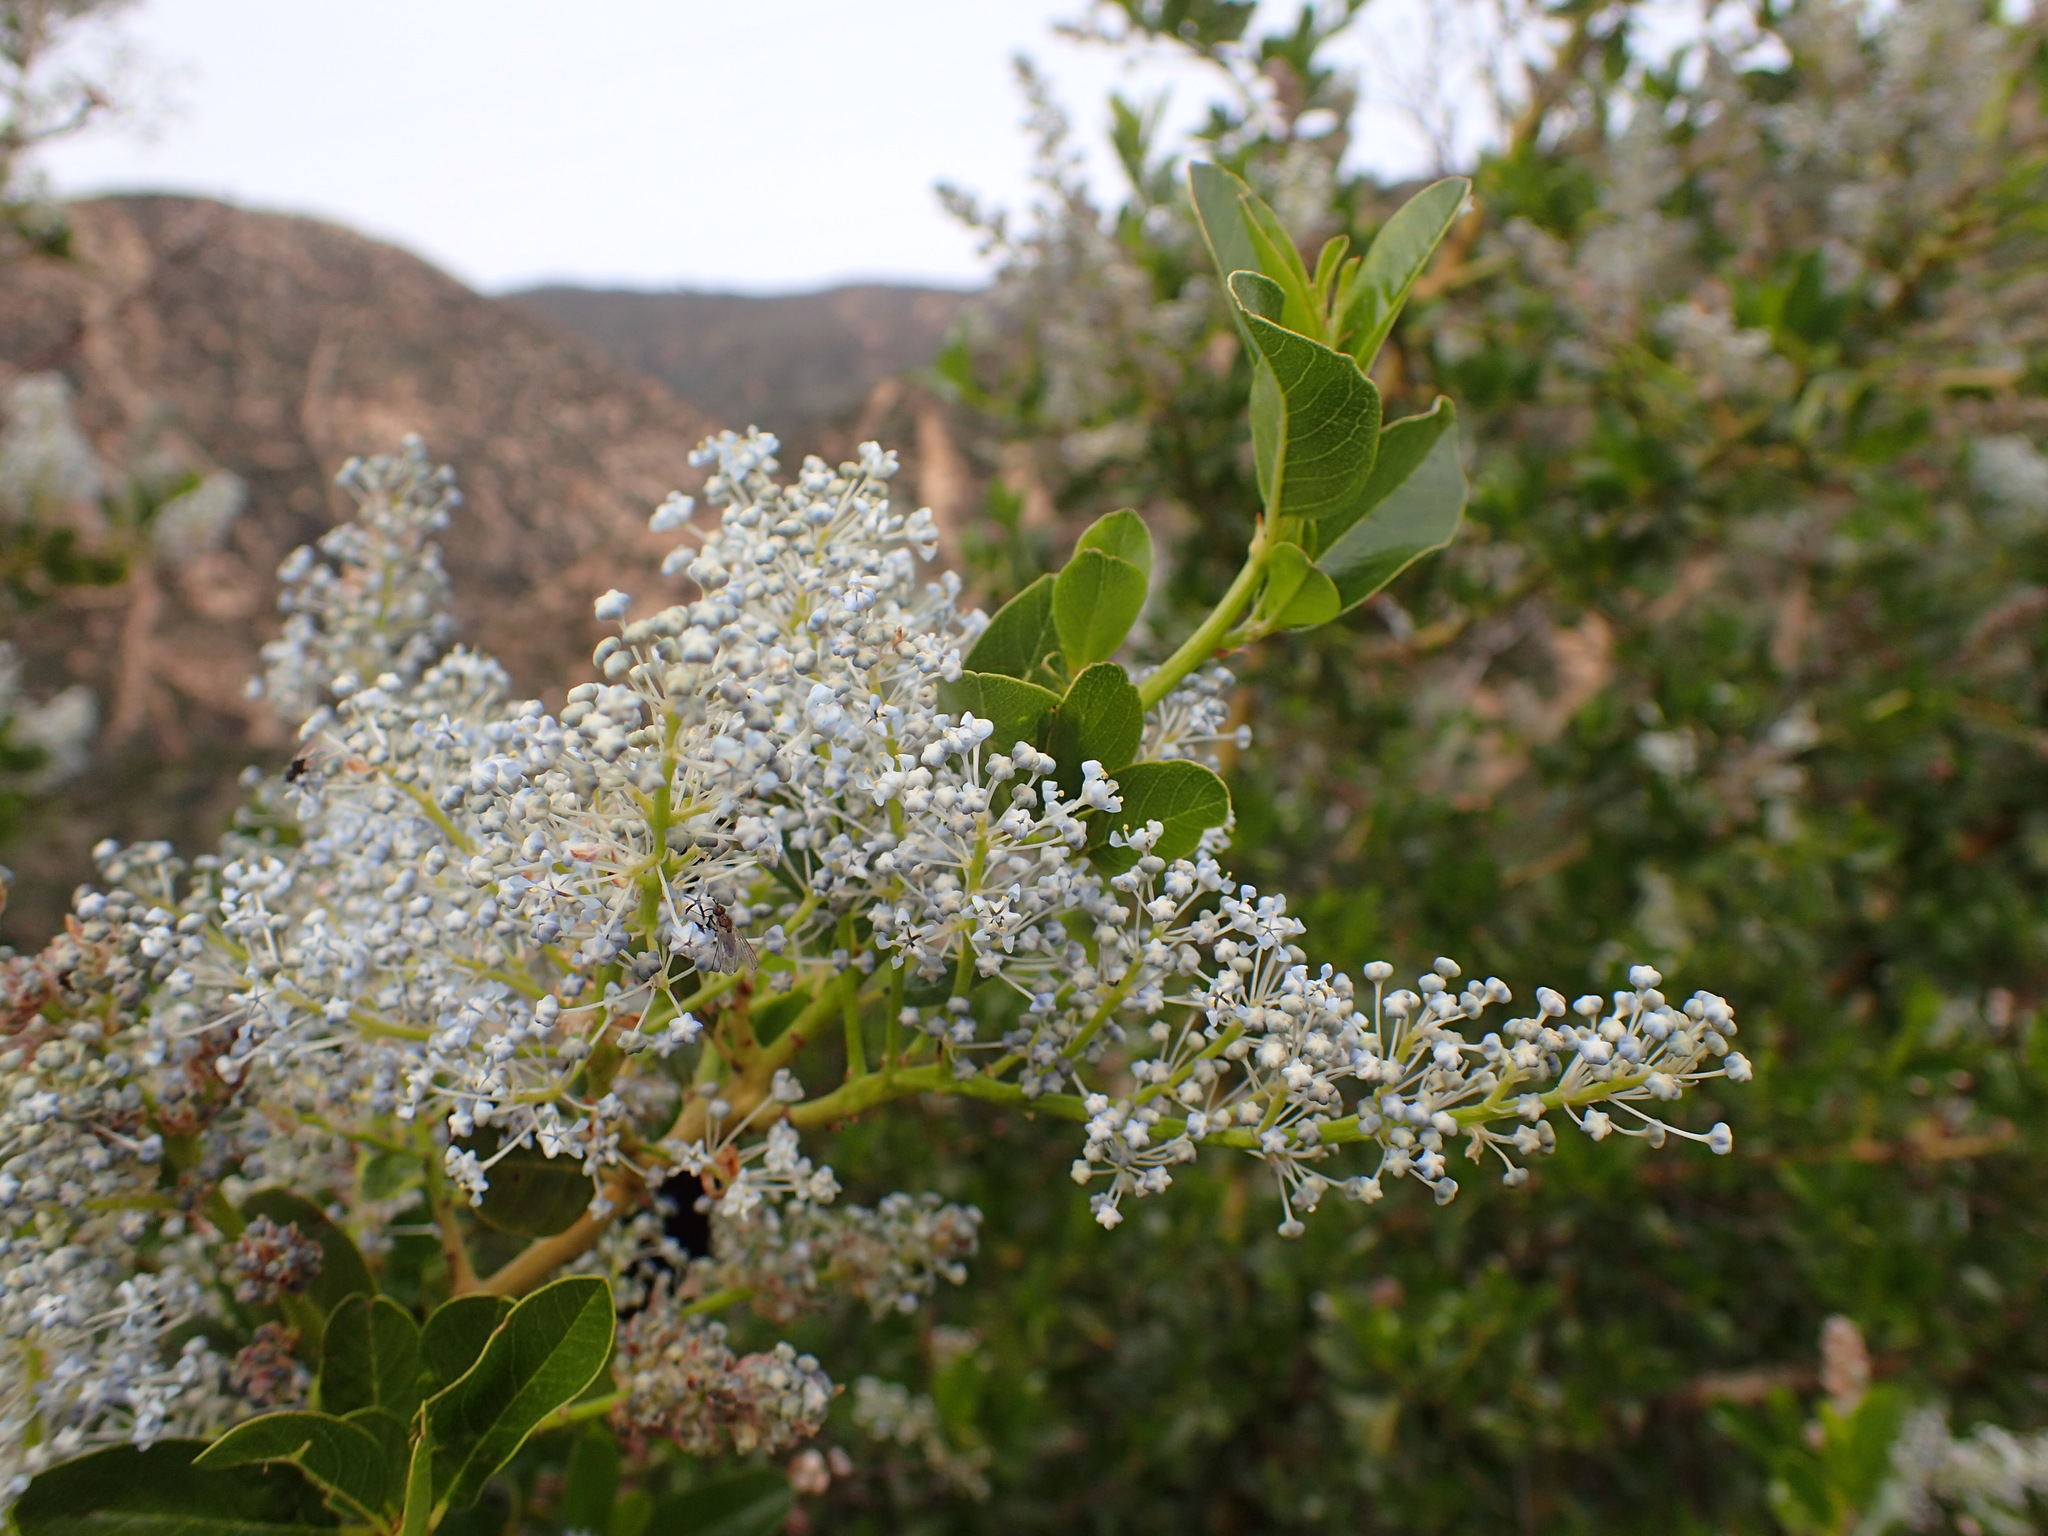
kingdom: Plantae
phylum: Tracheophyta
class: Magnoliopsida
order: Rosales
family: Rhamnaceae
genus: Ceanothus
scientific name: Ceanothus spinosus
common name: Greenbark whitethorn
